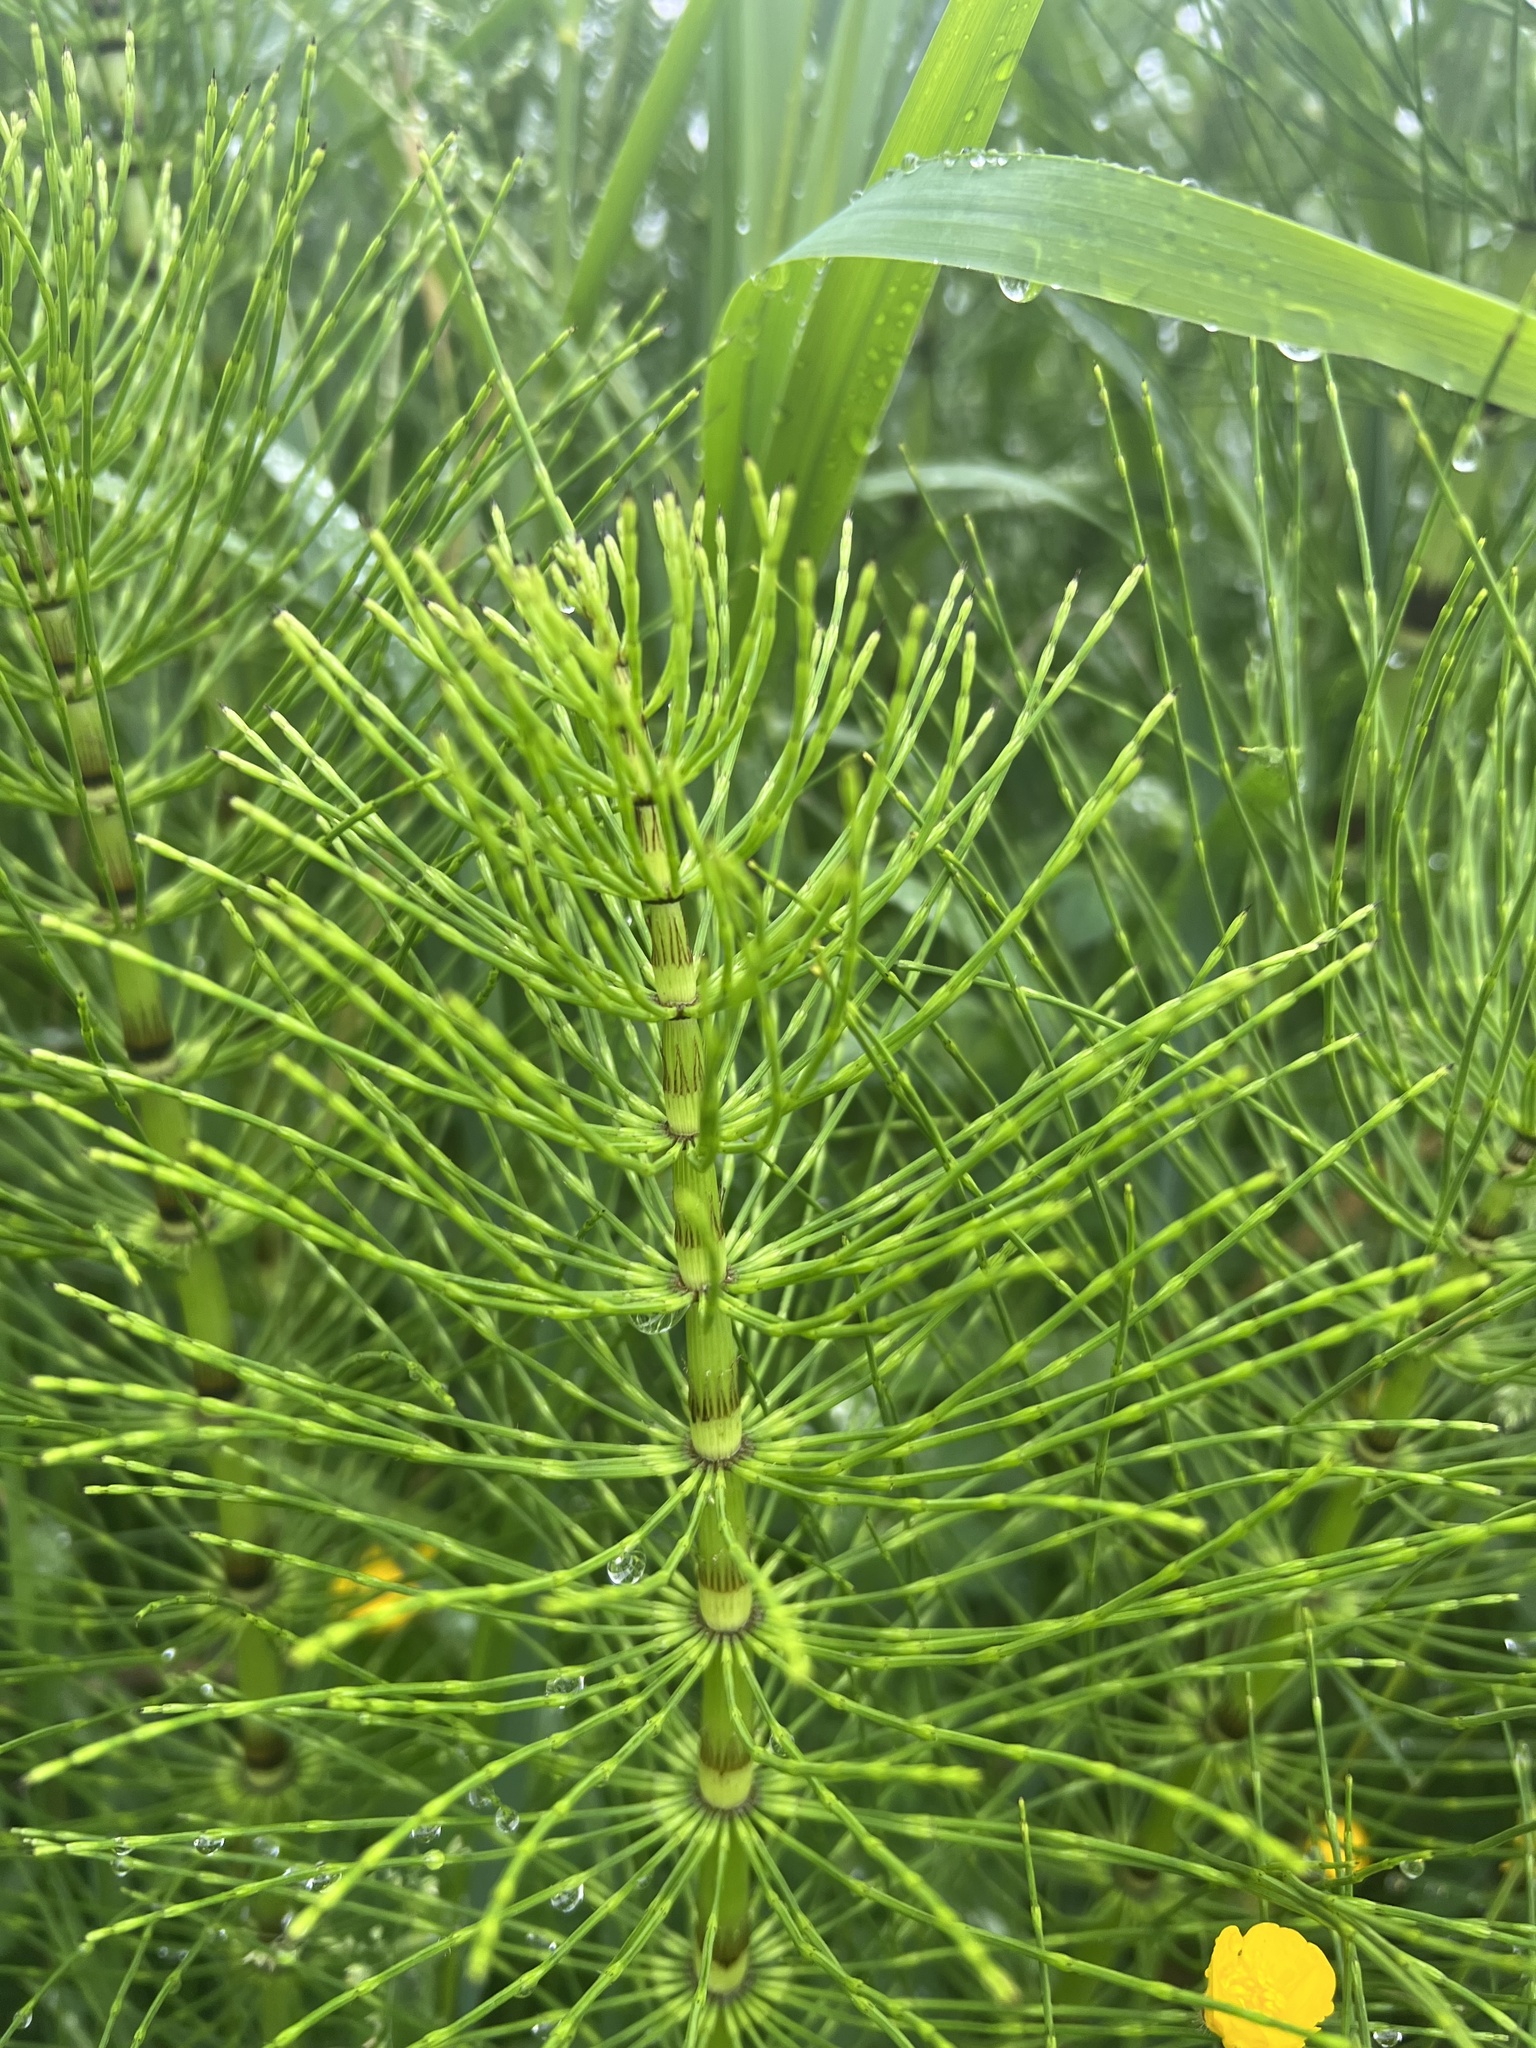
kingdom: Plantae
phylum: Tracheophyta
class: Polypodiopsida
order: Equisetales
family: Equisetaceae
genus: Equisetum
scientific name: Equisetum braunii
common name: Braun's horsetail
